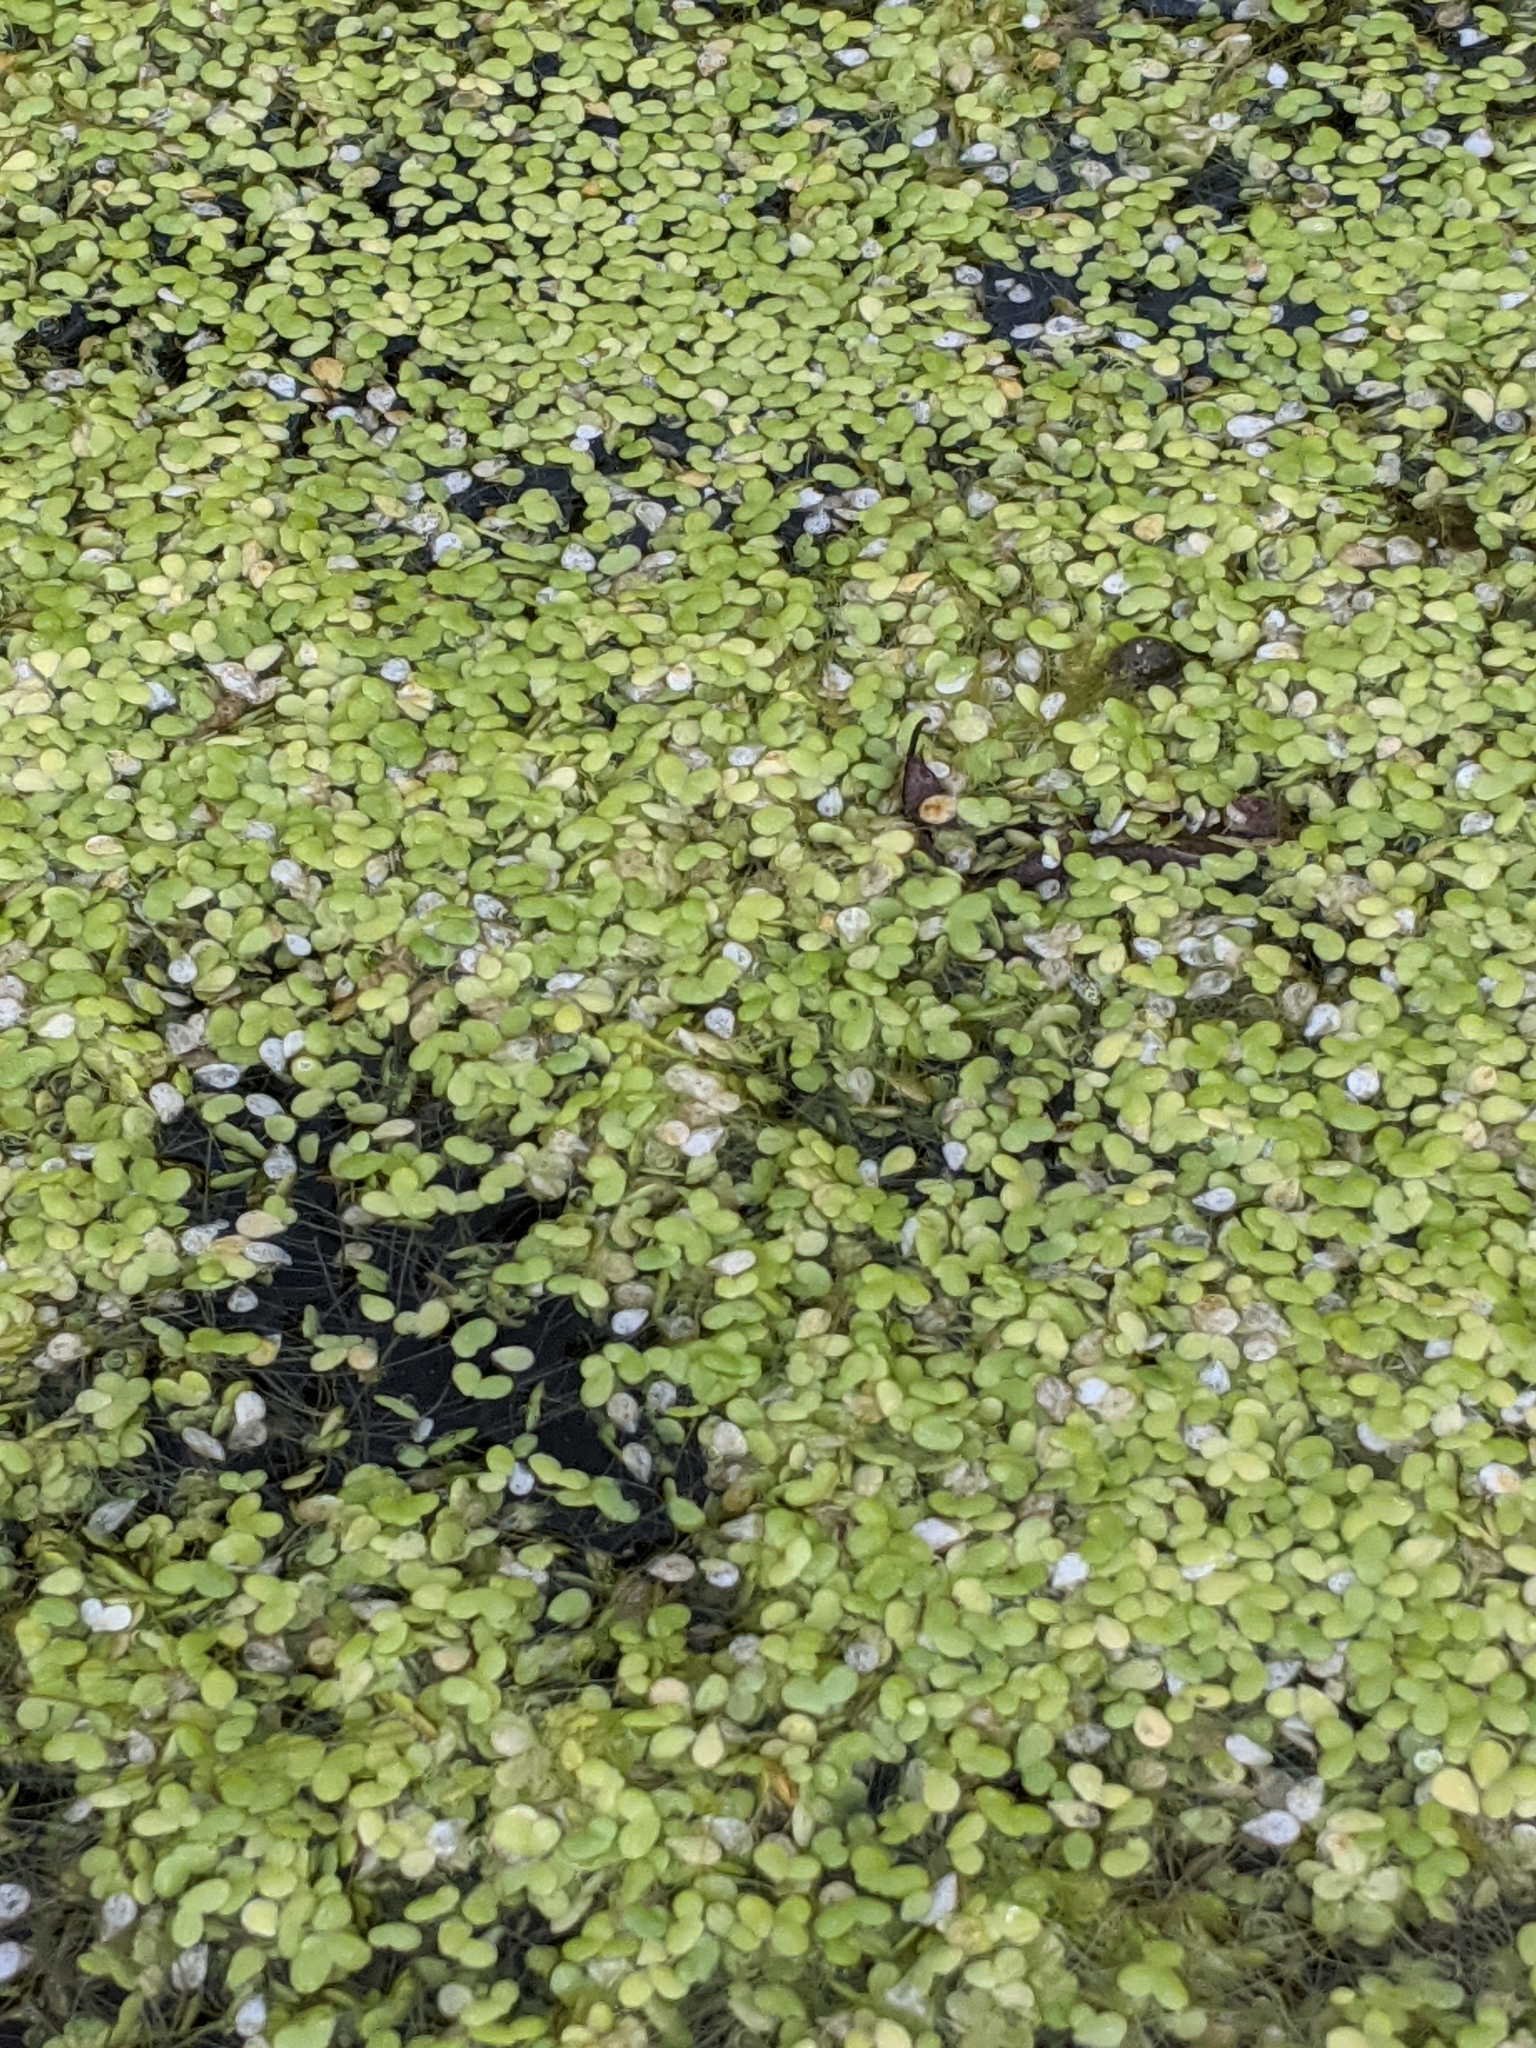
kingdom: Plantae
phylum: Tracheophyta
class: Liliopsida
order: Alismatales
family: Araceae
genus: Lemna
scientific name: Lemna minor
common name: Common duckweed
